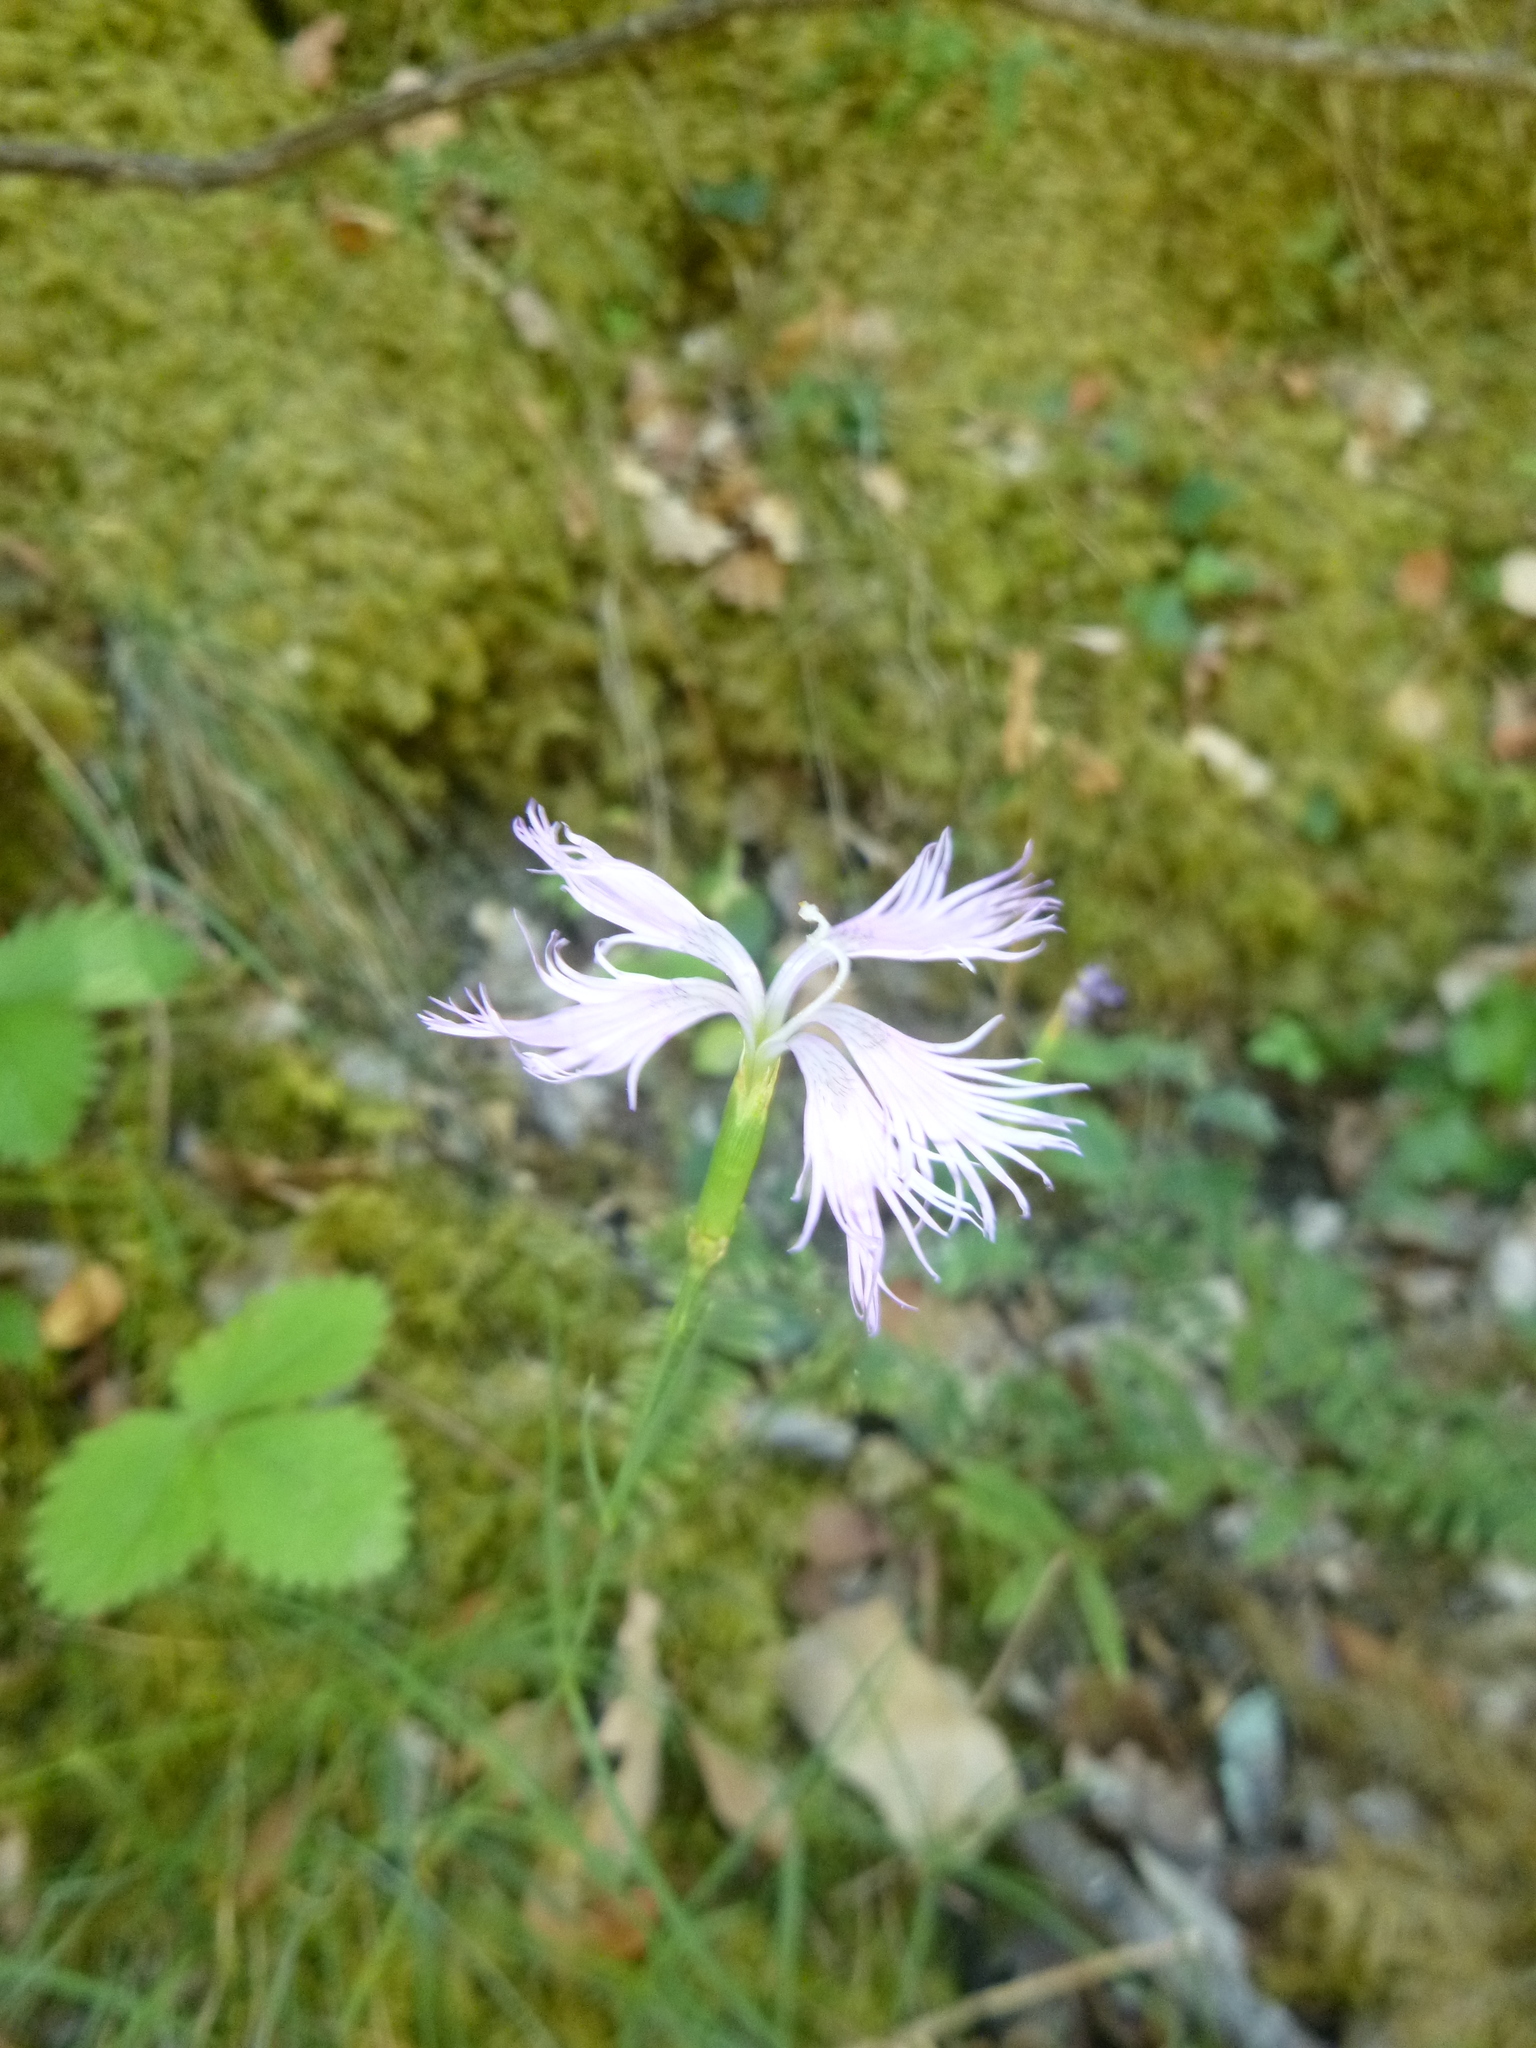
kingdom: Plantae
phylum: Tracheophyta
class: Magnoliopsida
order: Caryophyllales
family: Caryophyllaceae
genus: Dianthus
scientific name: Dianthus hyssopifolius
